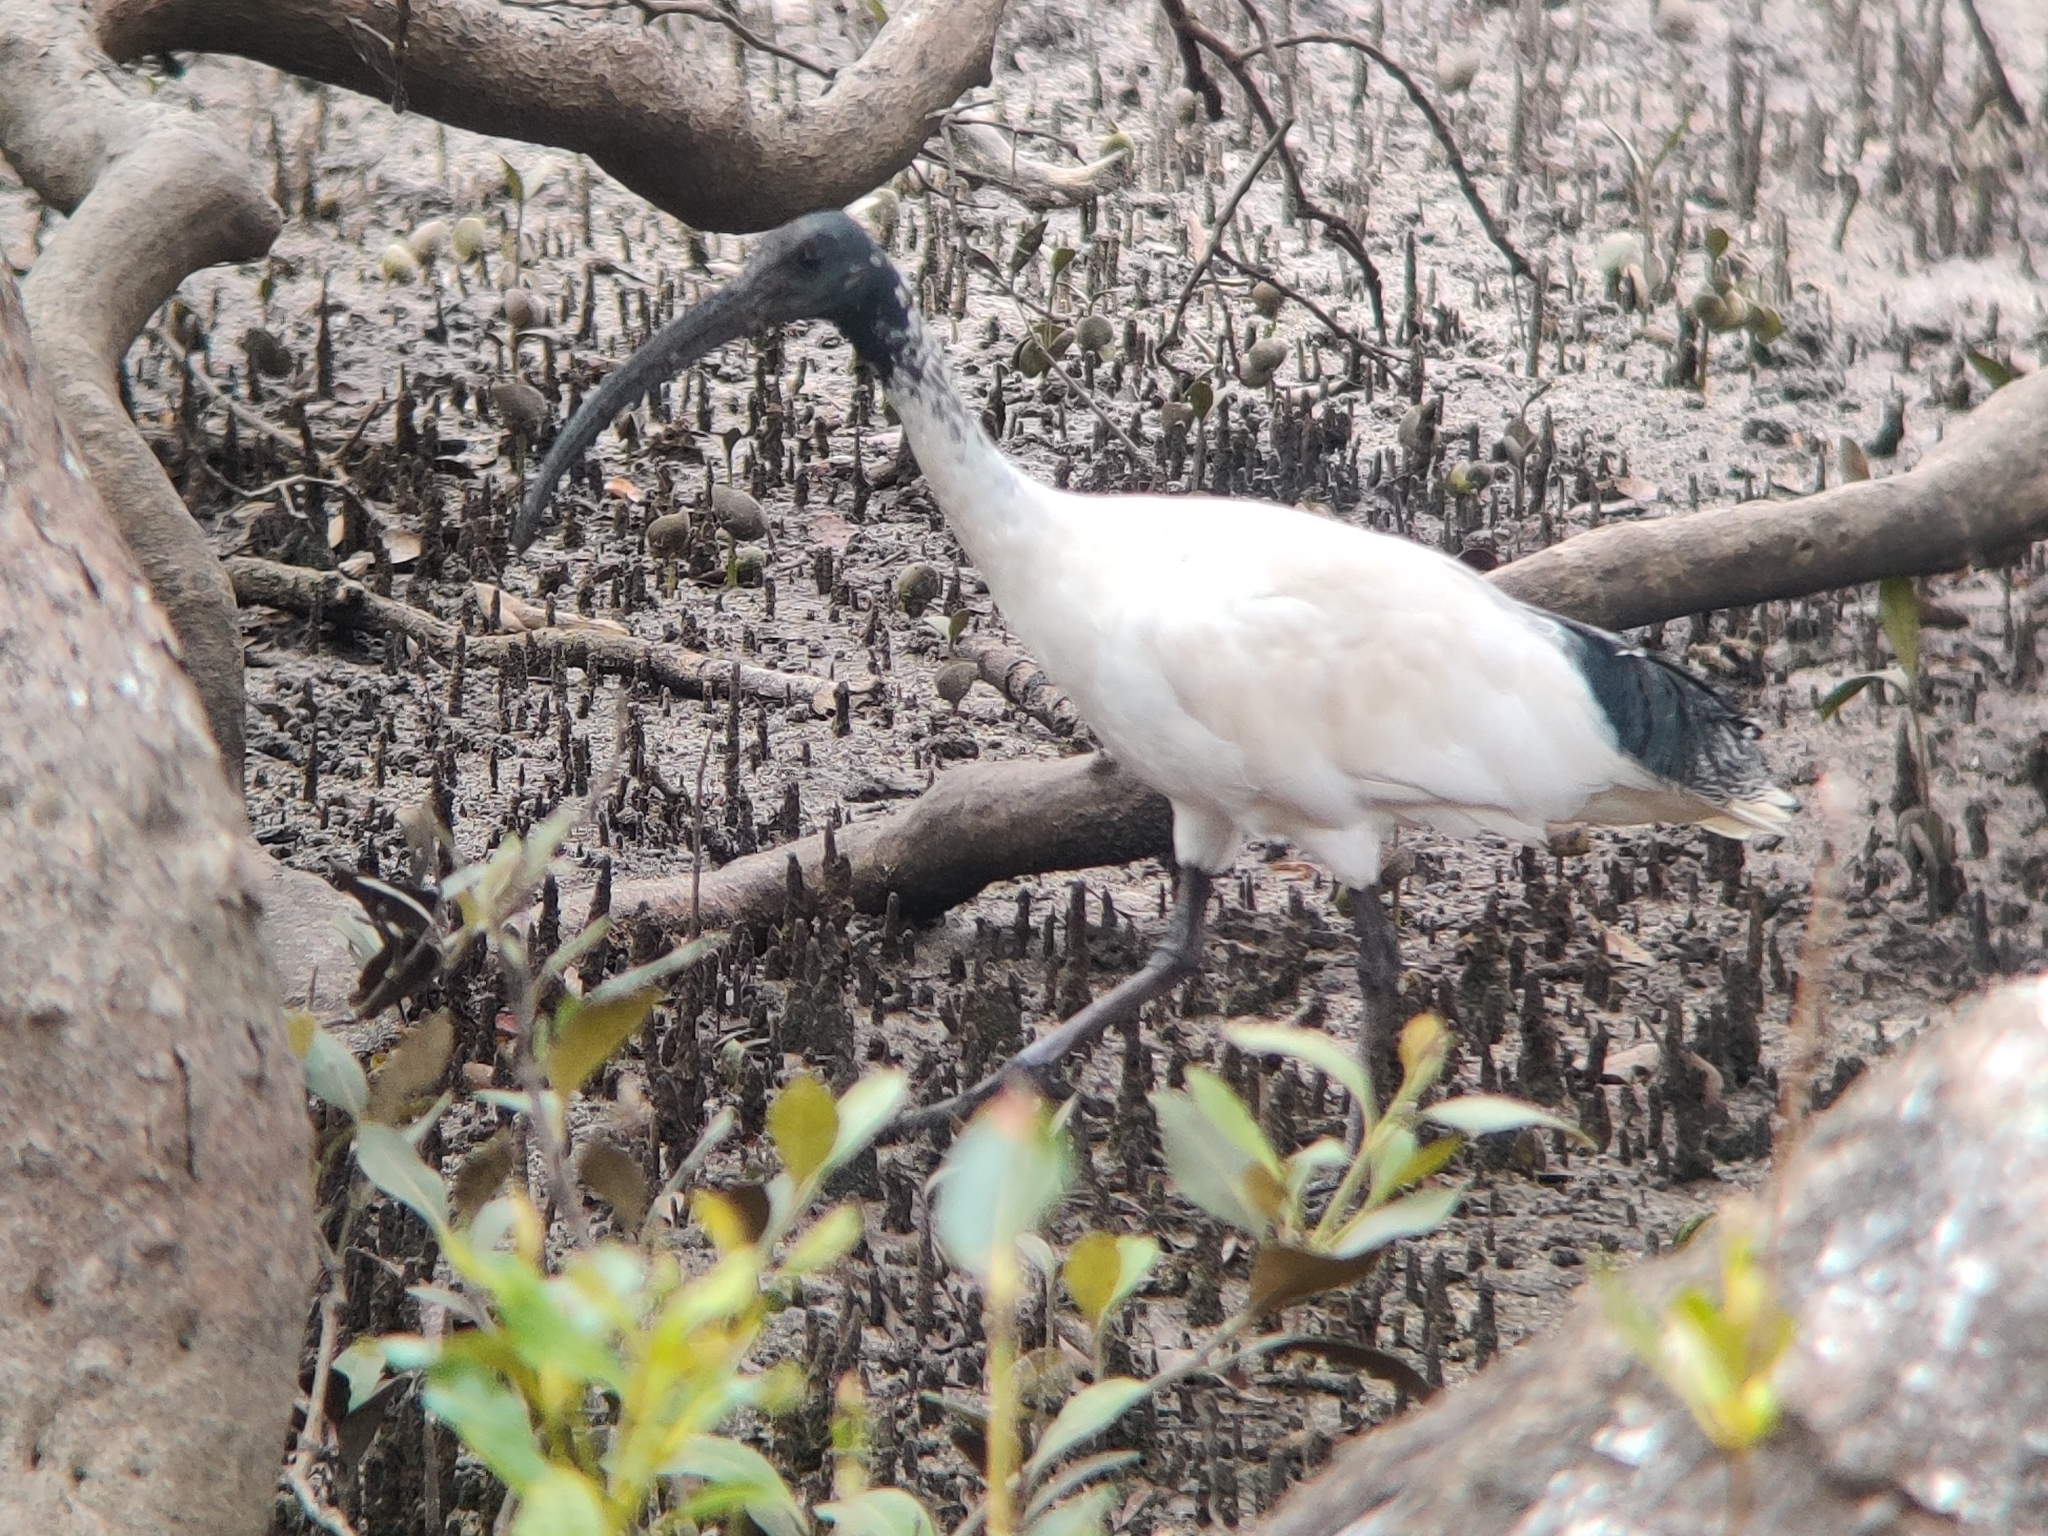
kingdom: Animalia
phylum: Chordata
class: Aves
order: Pelecaniformes
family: Threskiornithidae
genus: Threskiornis
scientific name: Threskiornis molucca
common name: Australian white ibis
